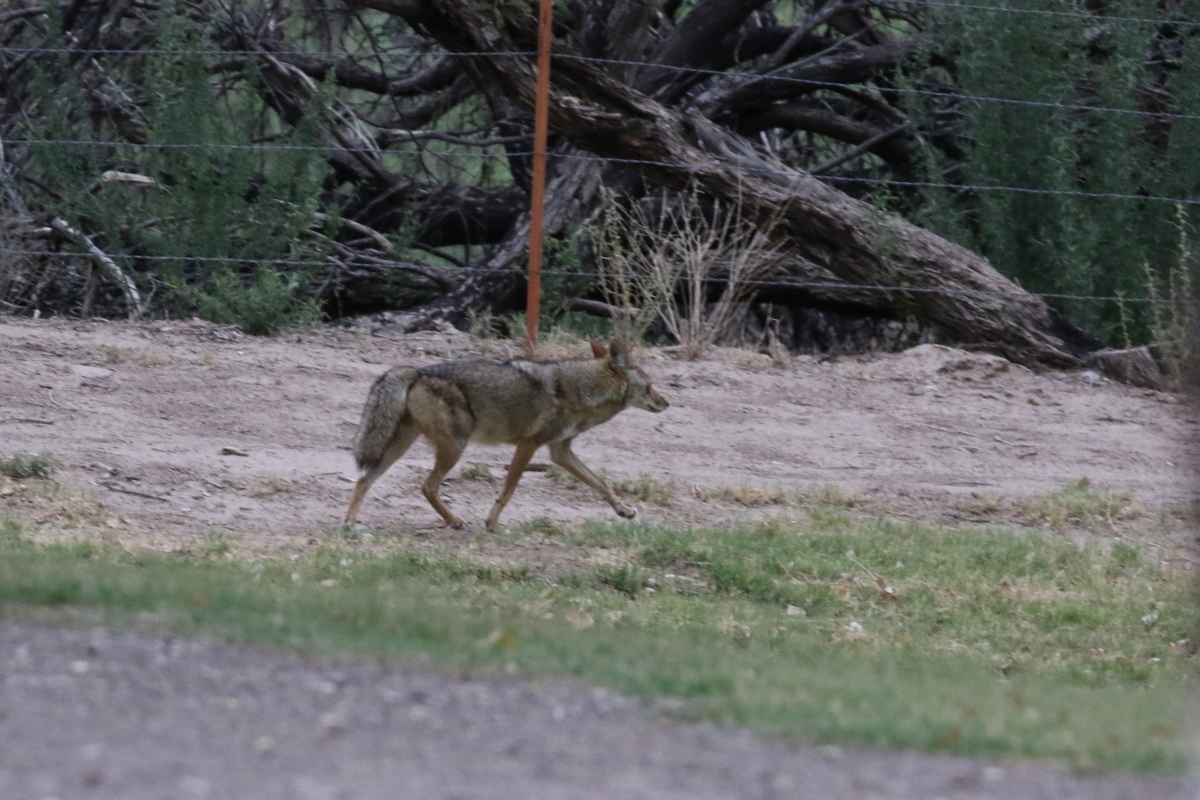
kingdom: Animalia
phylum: Chordata
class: Mammalia
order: Carnivora
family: Canidae
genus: Canis
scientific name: Canis latrans
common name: Coyote
